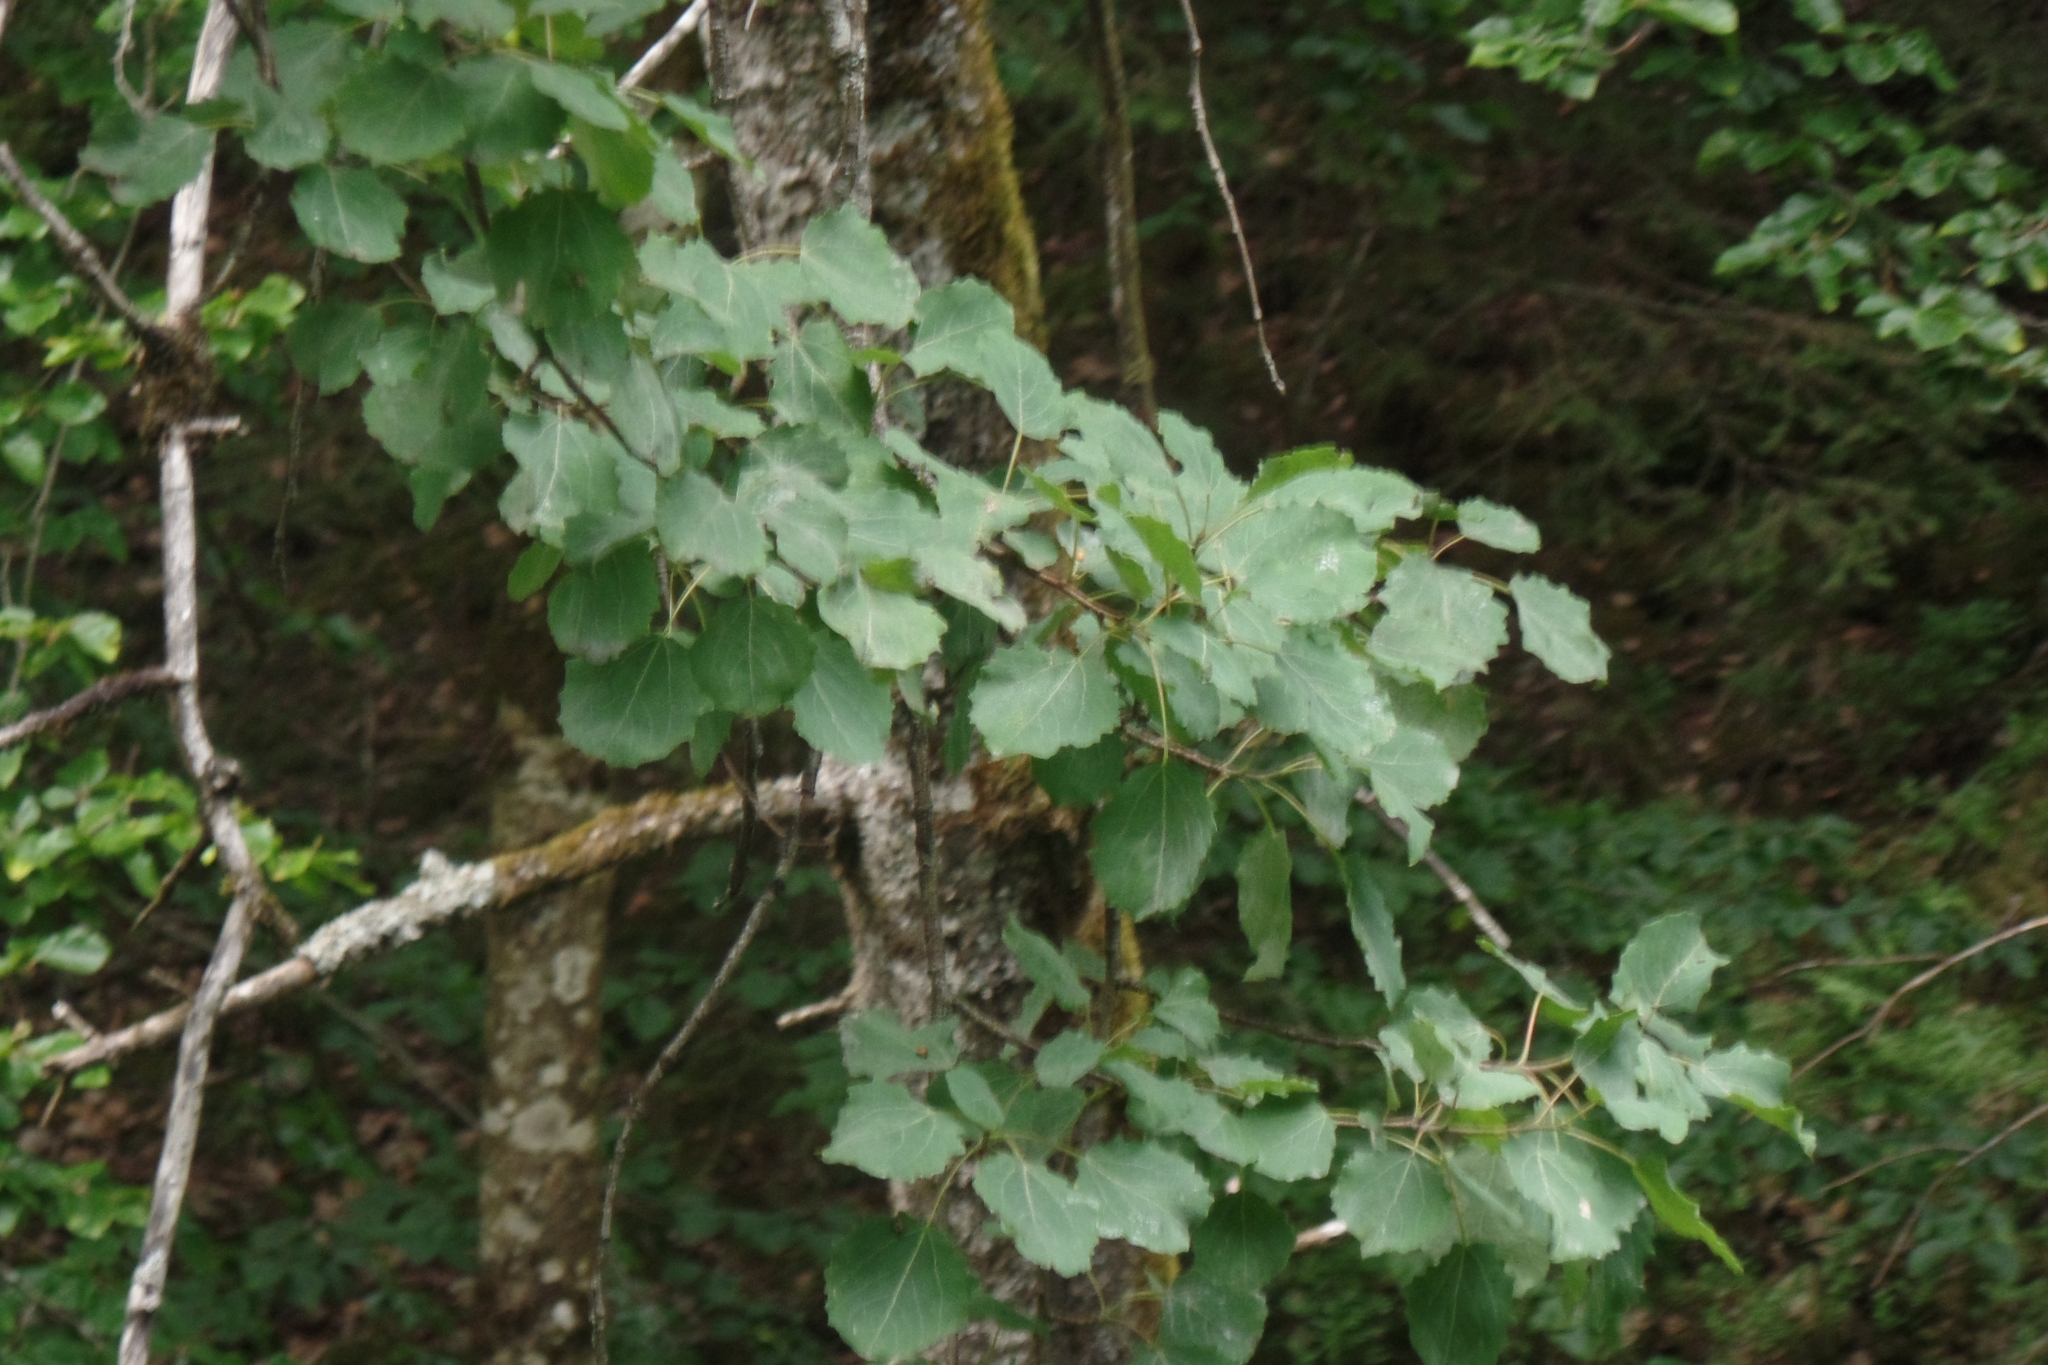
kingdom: Plantae
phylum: Tracheophyta
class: Magnoliopsida
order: Malpighiales
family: Salicaceae
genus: Populus
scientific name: Populus tremula
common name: European aspen
